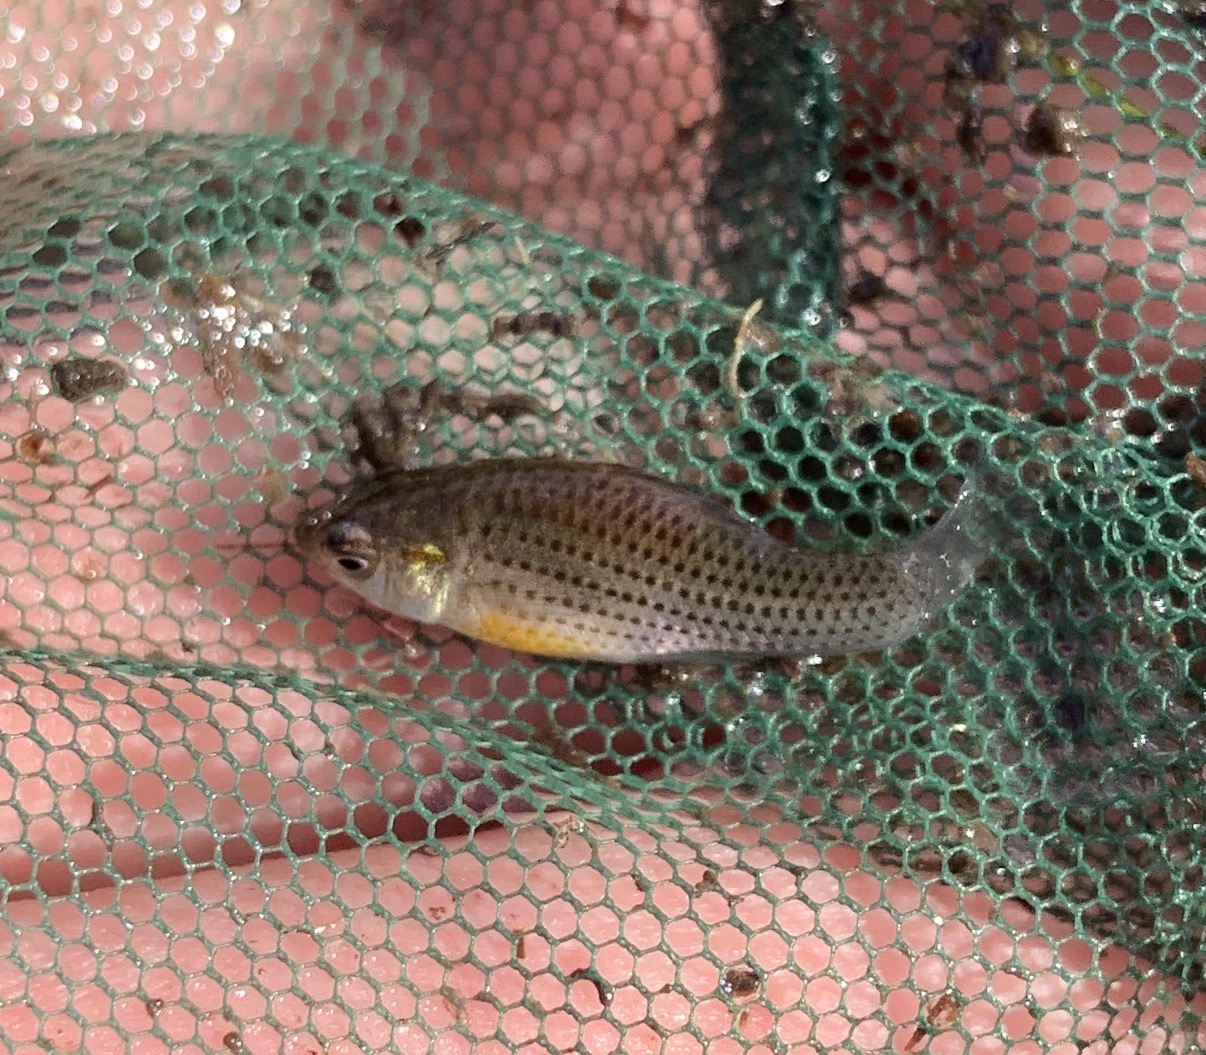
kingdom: Animalia
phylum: Chordata
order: Cyprinodontiformes
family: Poeciliidae
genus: Poecilia
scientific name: Poecilia latipinna
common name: Sailfin molly
